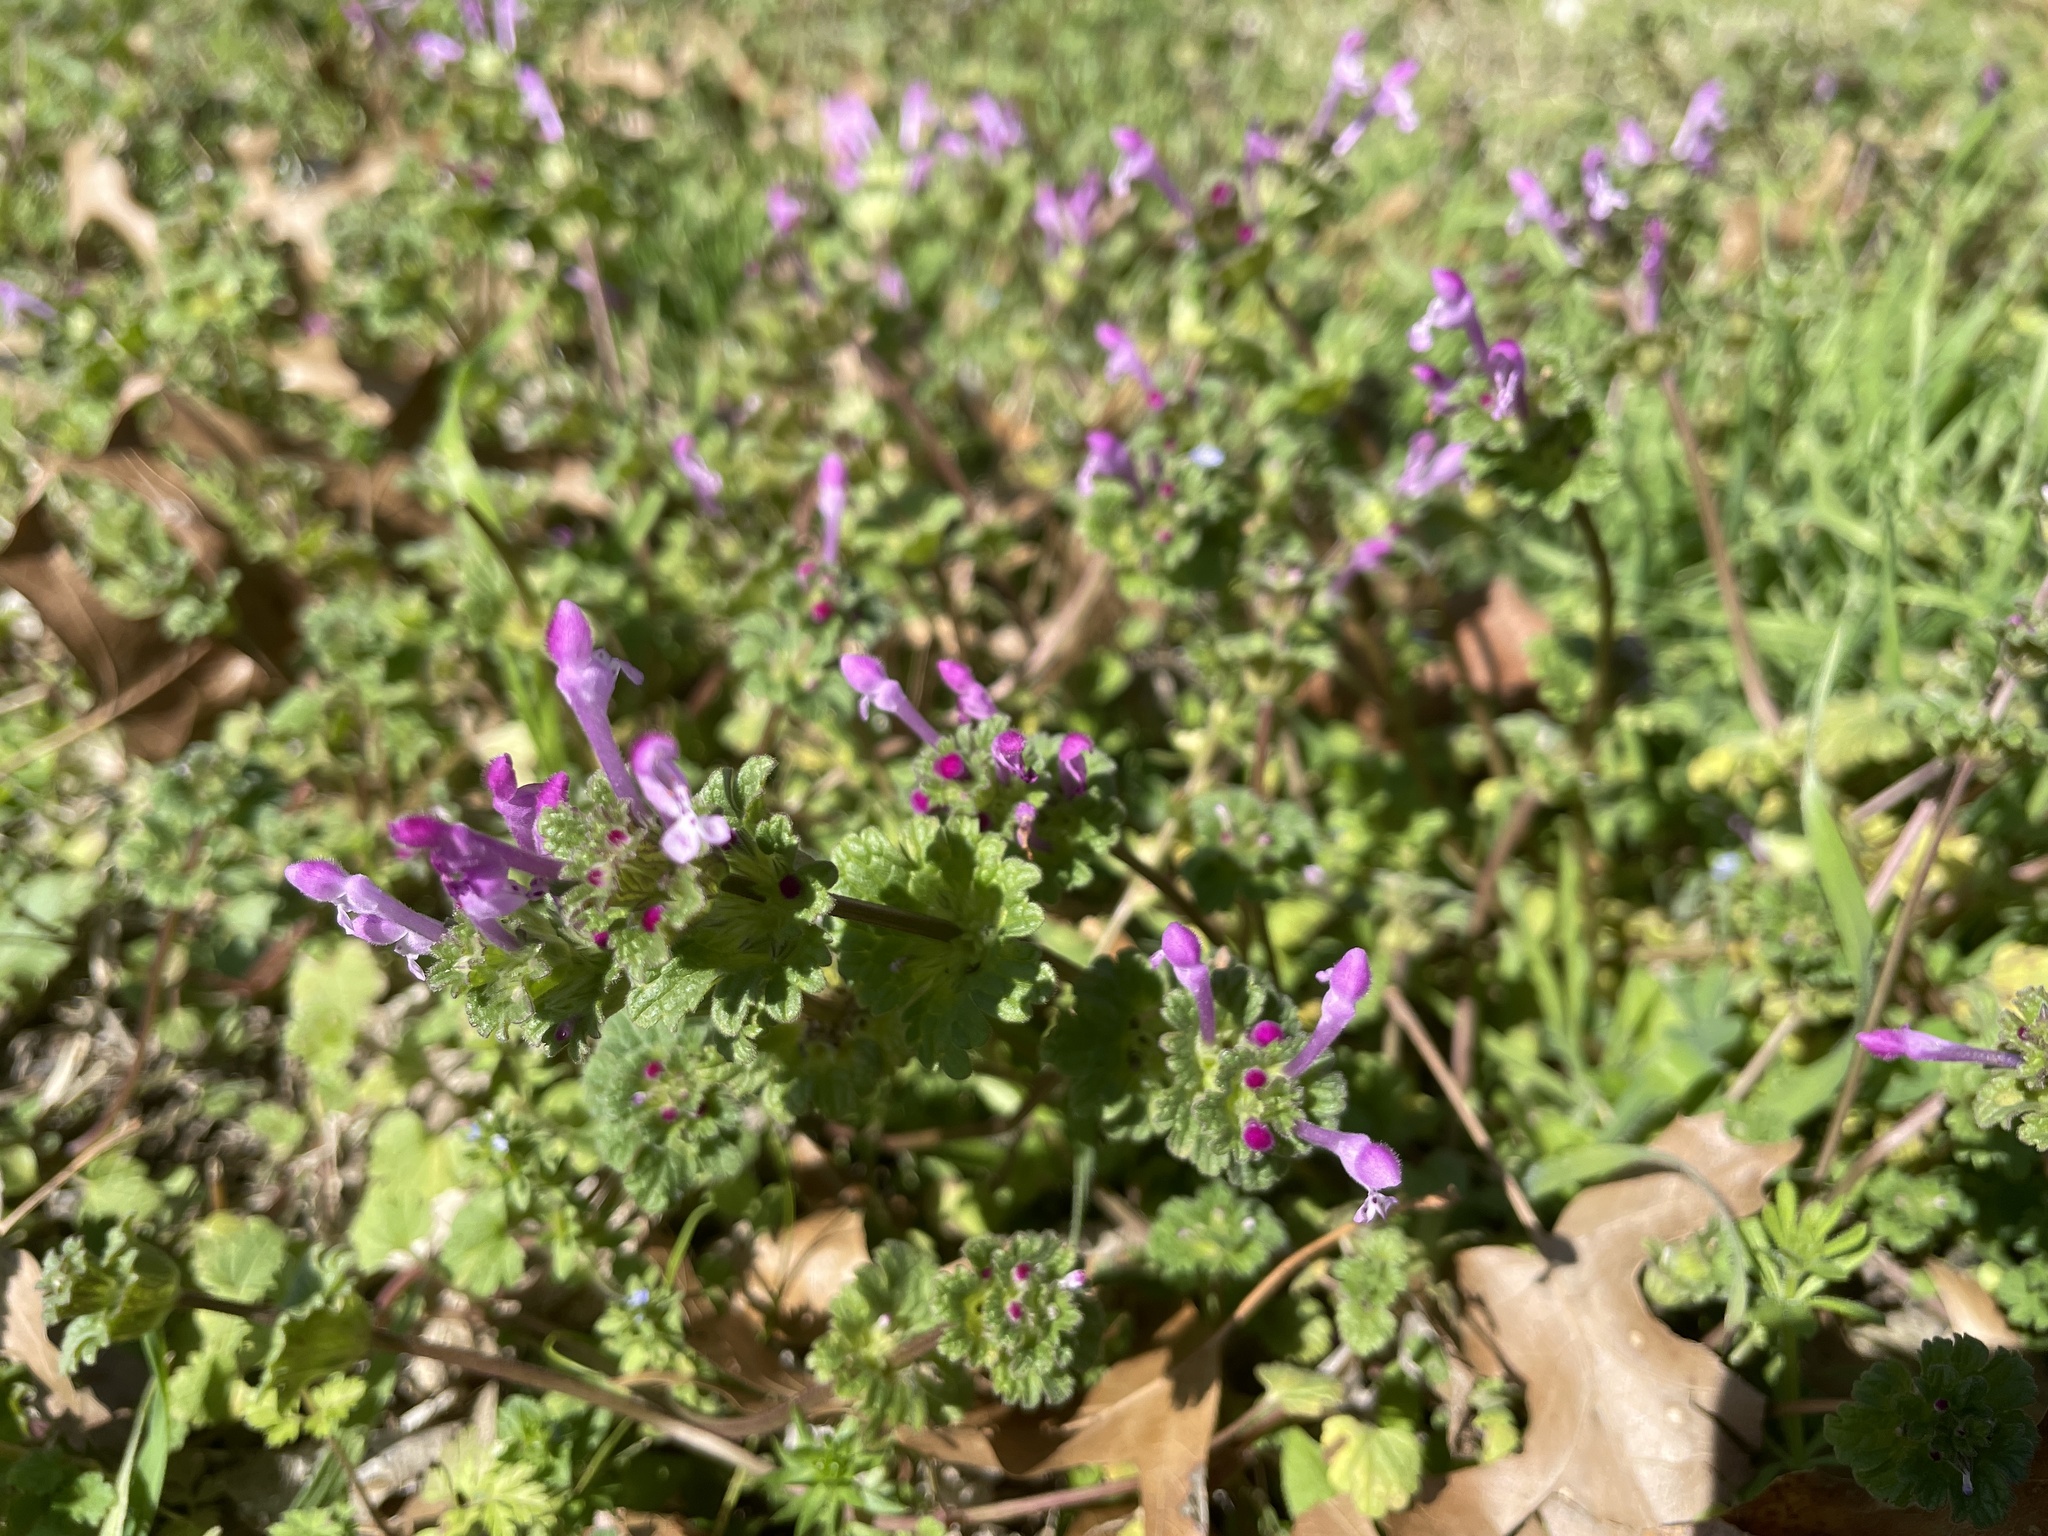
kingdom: Plantae
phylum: Tracheophyta
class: Magnoliopsida
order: Lamiales
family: Lamiaceae
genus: Lamium
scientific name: Lamium amplexicaule
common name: Henbit dead-nettle
